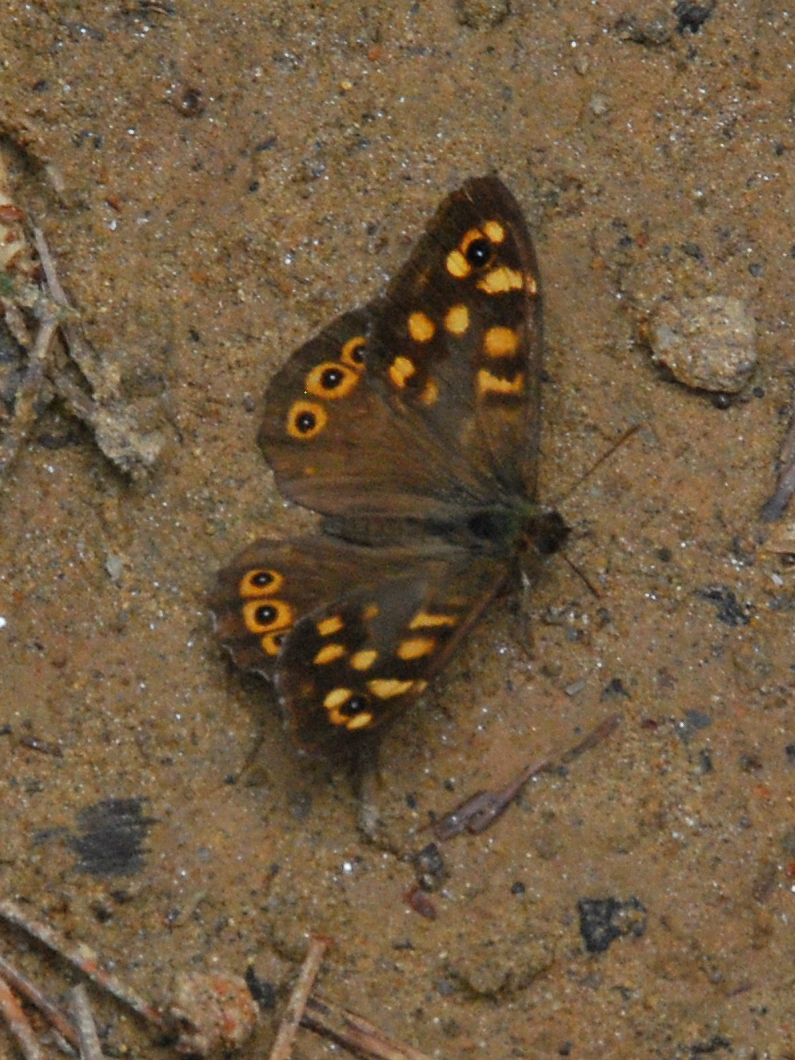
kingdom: Animalia
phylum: Arthropoda
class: Insecta
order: Lepidoptera
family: Nymphalidae
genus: Pararge
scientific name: Pararge aegeria
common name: Speckled wood
